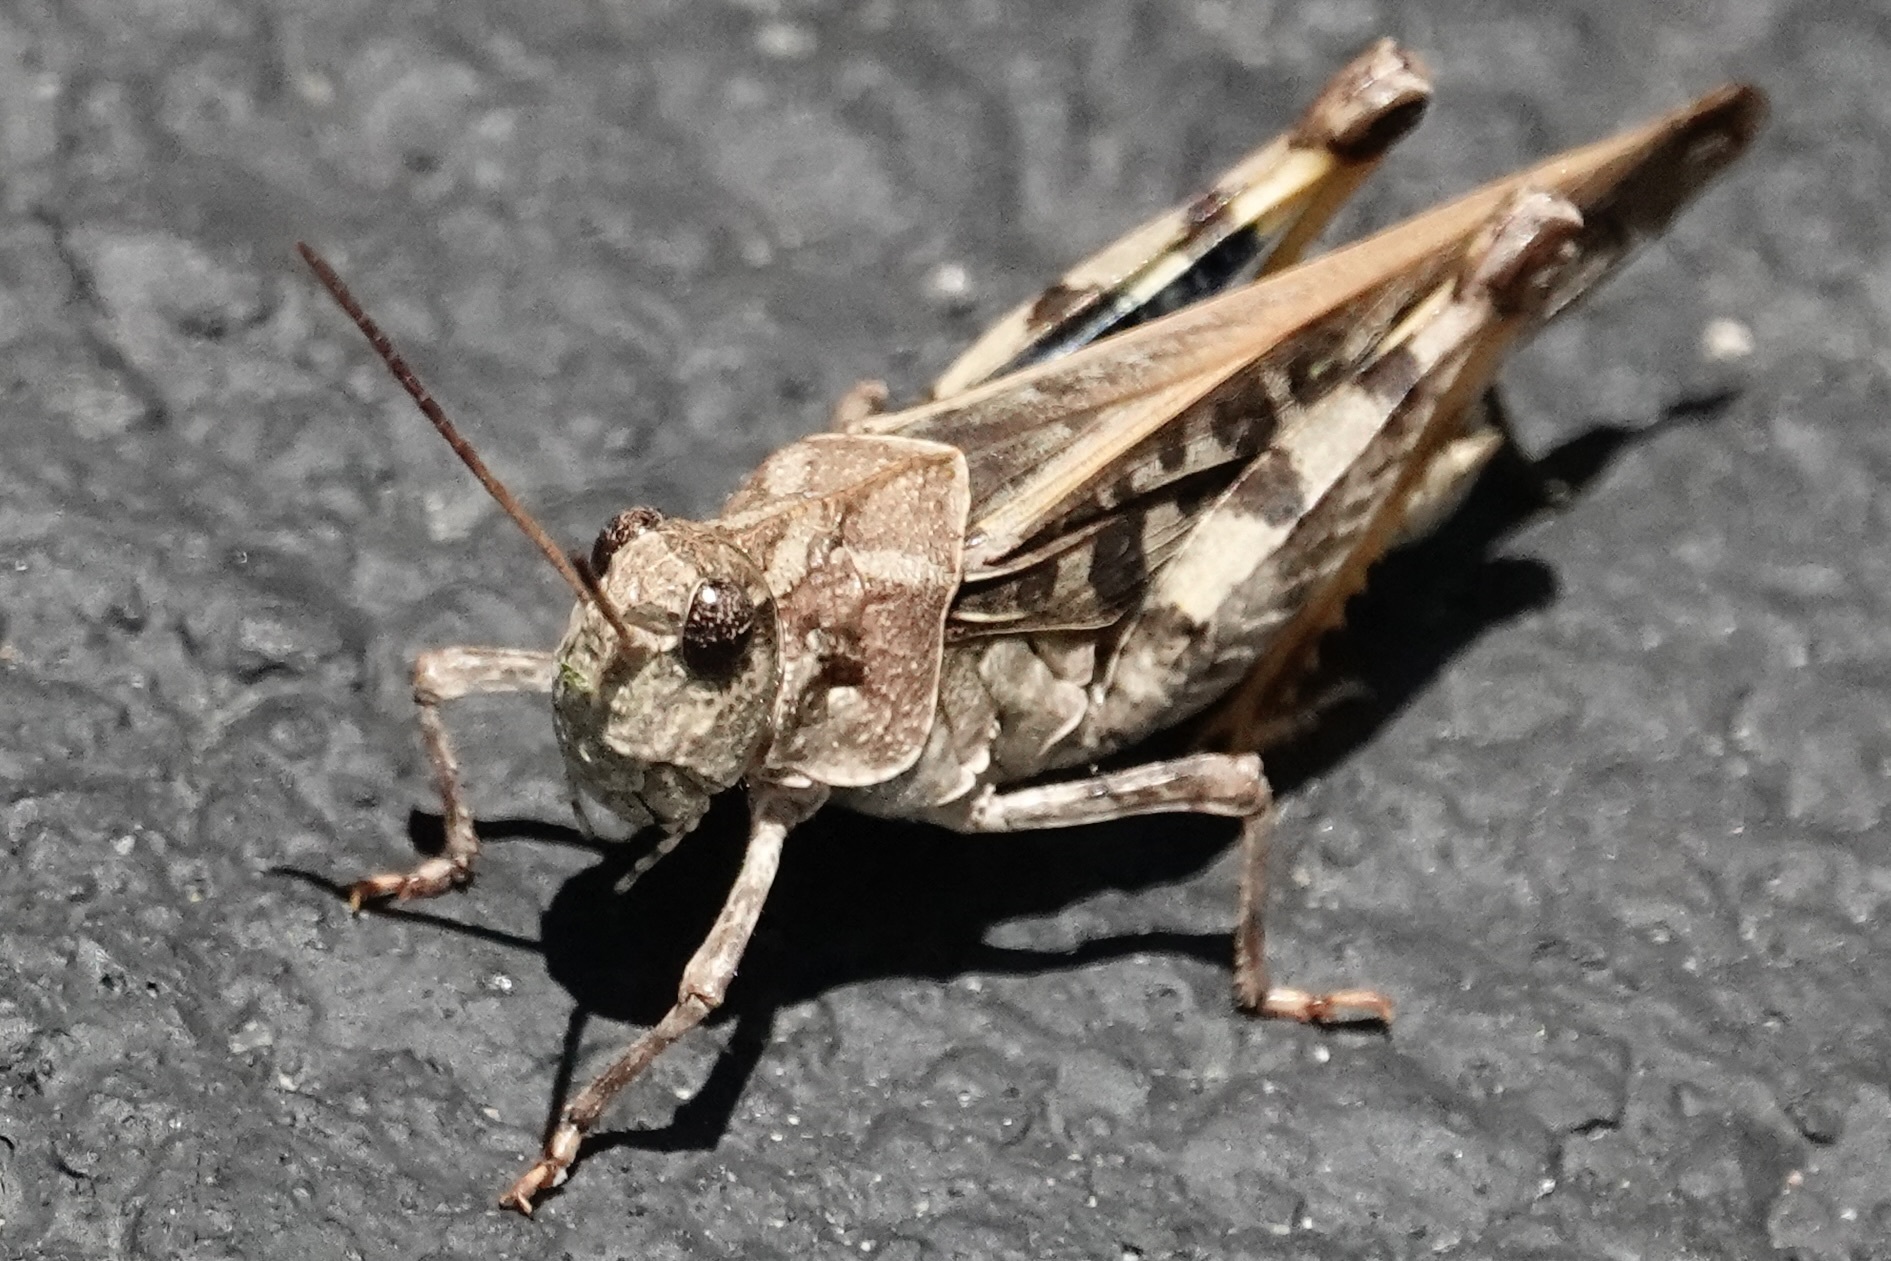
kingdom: Animalia
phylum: Arthropoda
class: Insecta
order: Orthoptera
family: Acrididae
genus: Pardalophora
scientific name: Pardalophora phoenicoptera
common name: Orange-winged grasshopper
